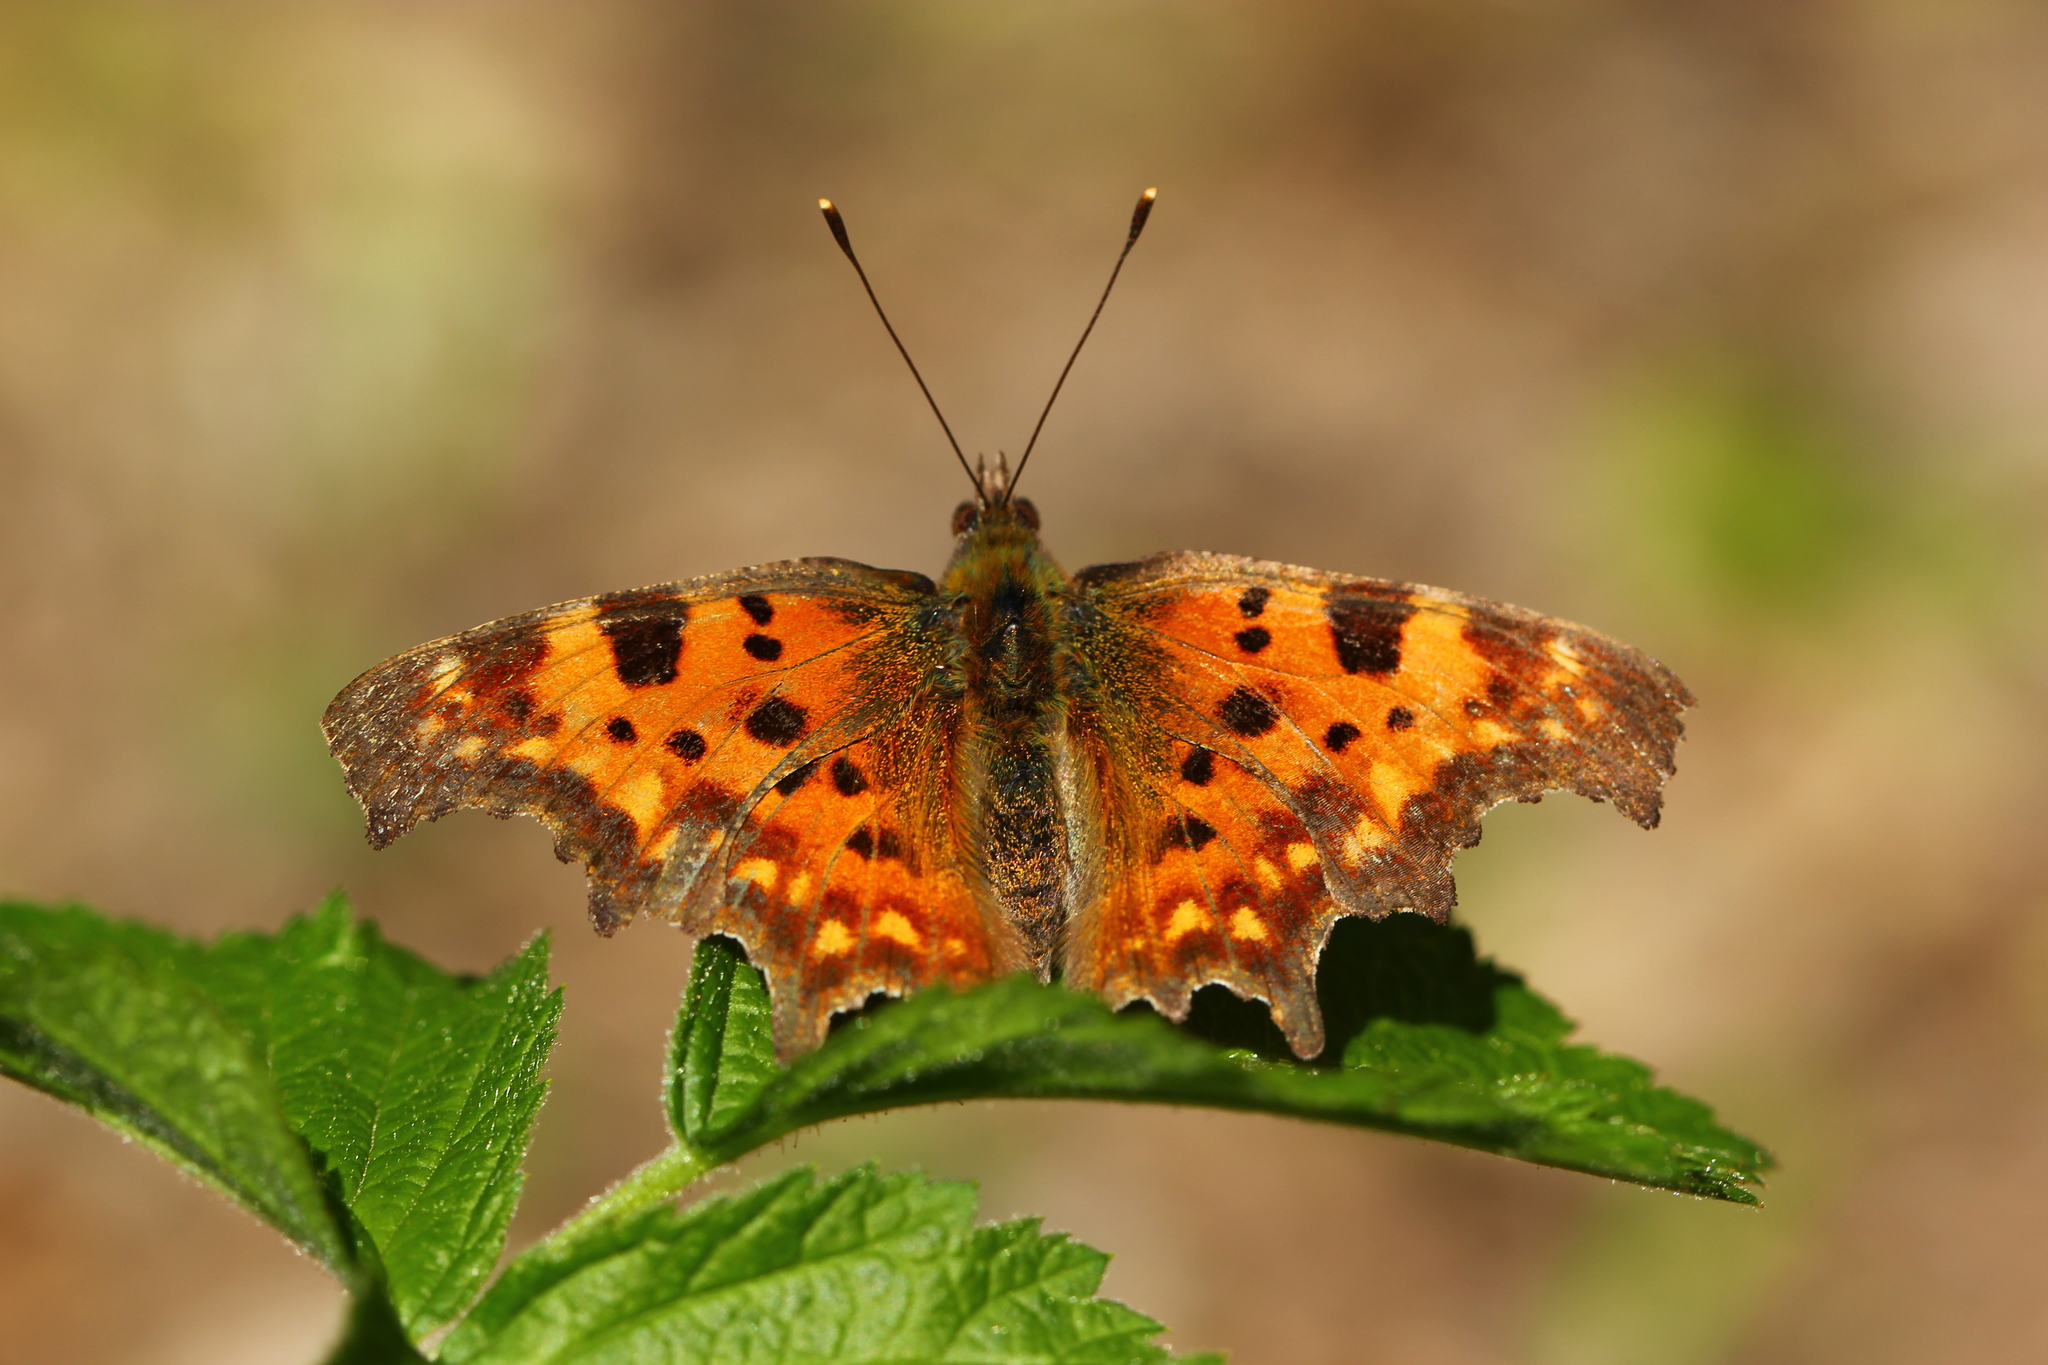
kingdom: Animalia
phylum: Arthropoda
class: Insecta
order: Lepidoptera
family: Nymphalidae
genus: Polygonia
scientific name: Polygonia c-album
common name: Comma
